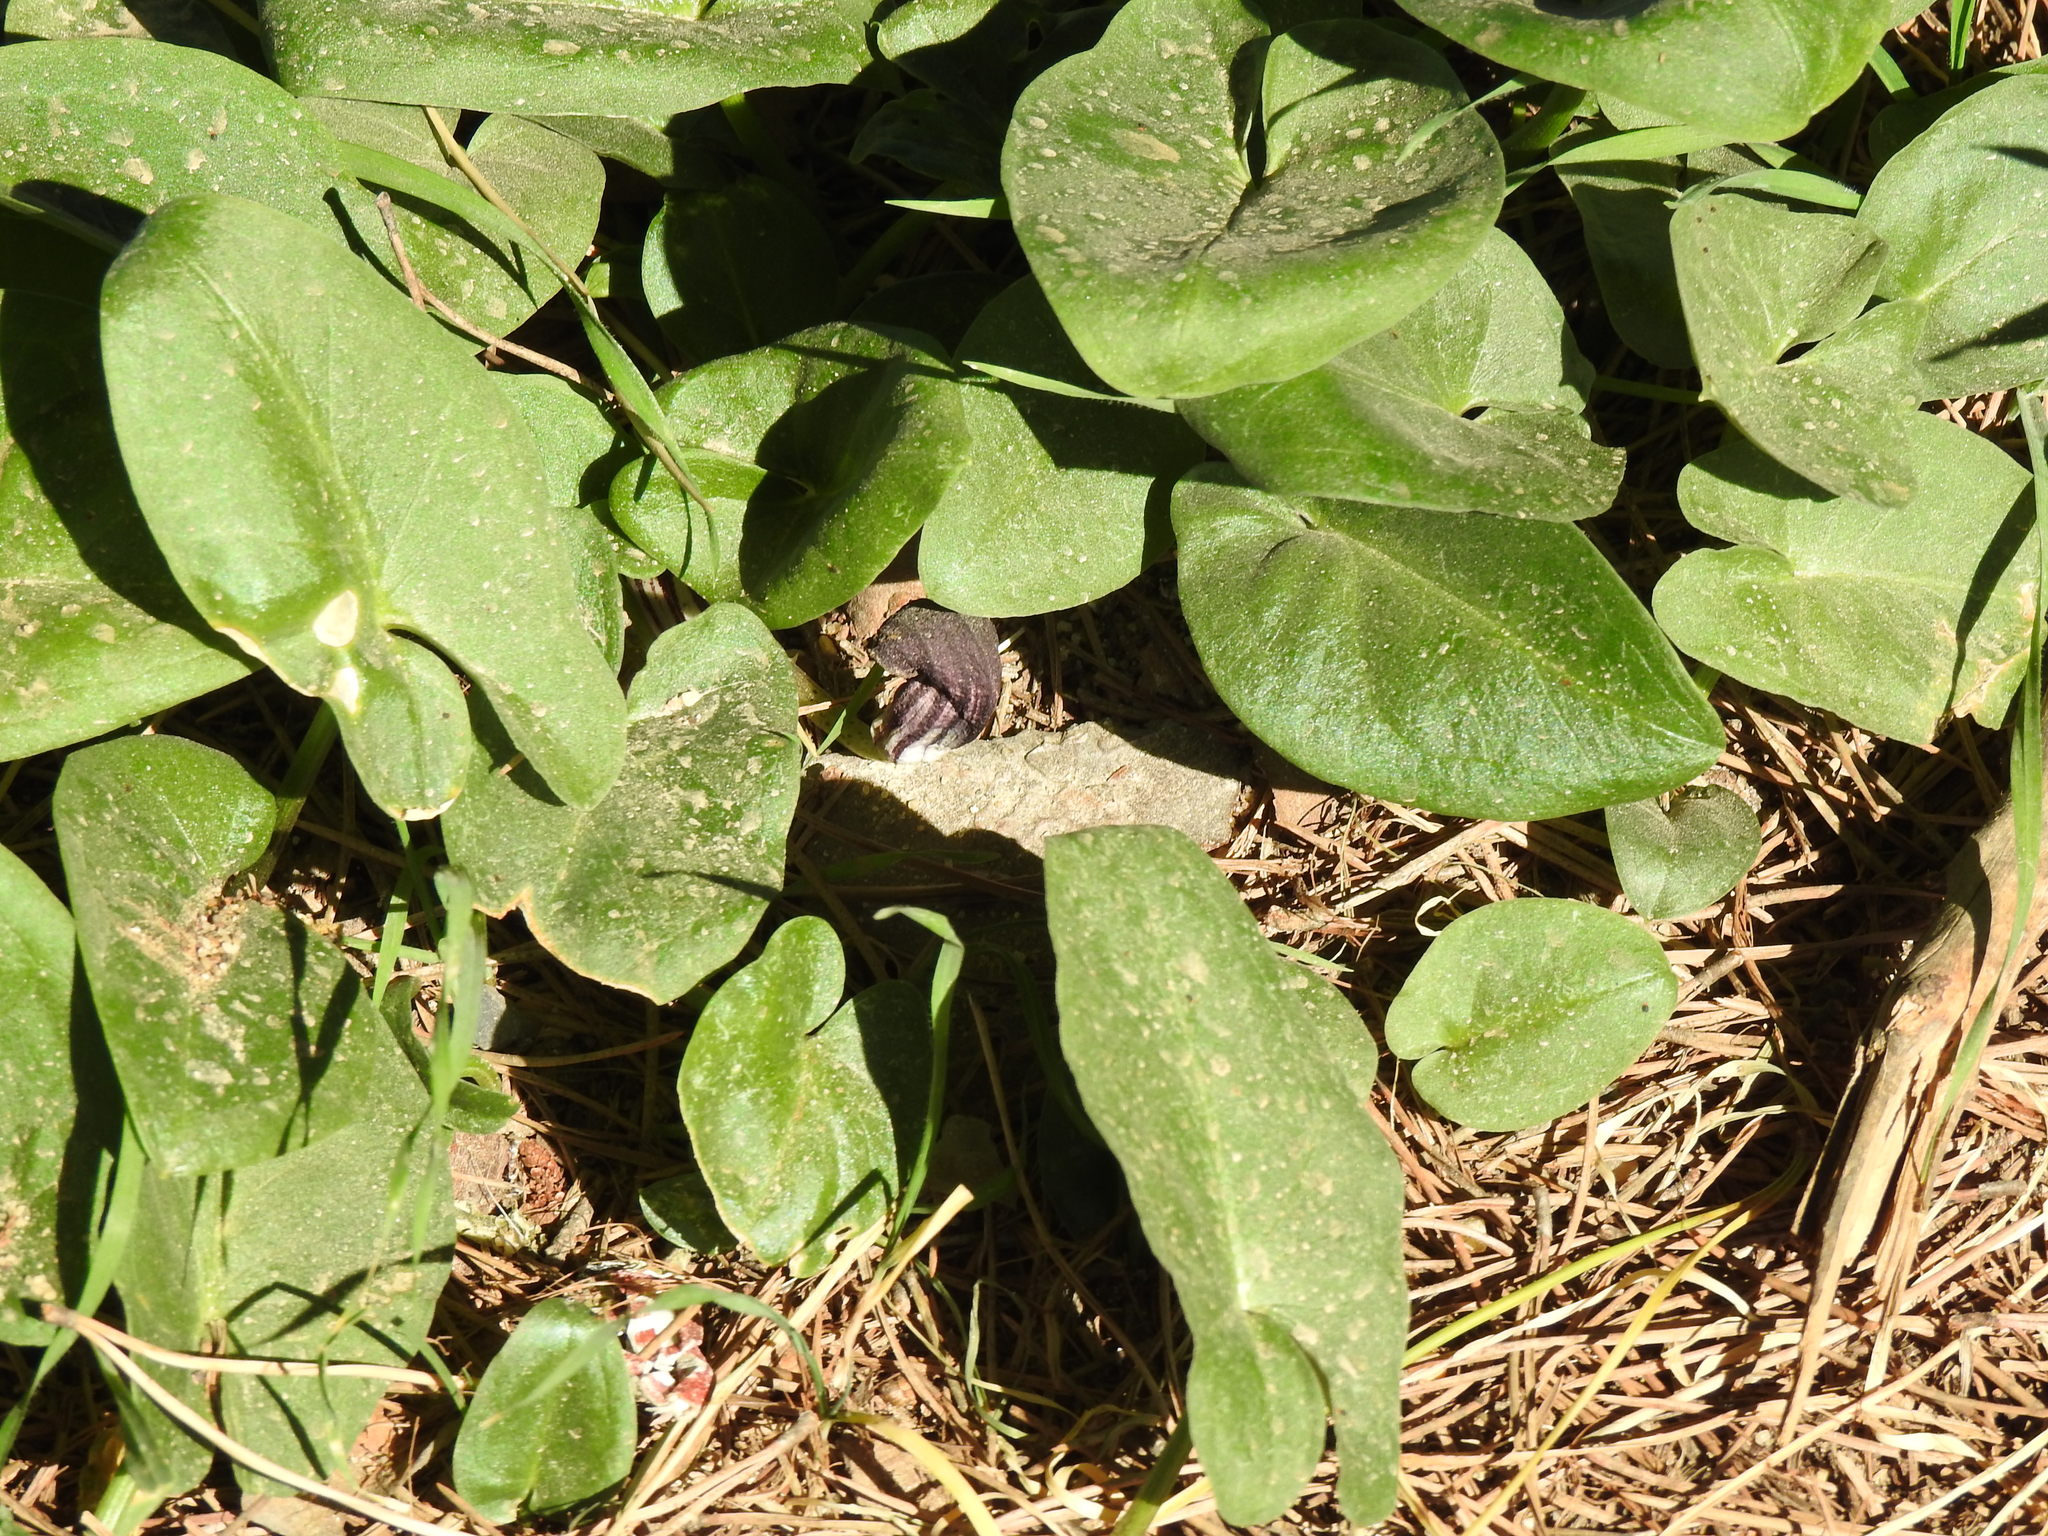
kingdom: Plantae
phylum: Tracheophyta
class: Liliopsida
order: Alismatales
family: Araceae
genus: Arisarum
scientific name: Arisarum simorrhinum
